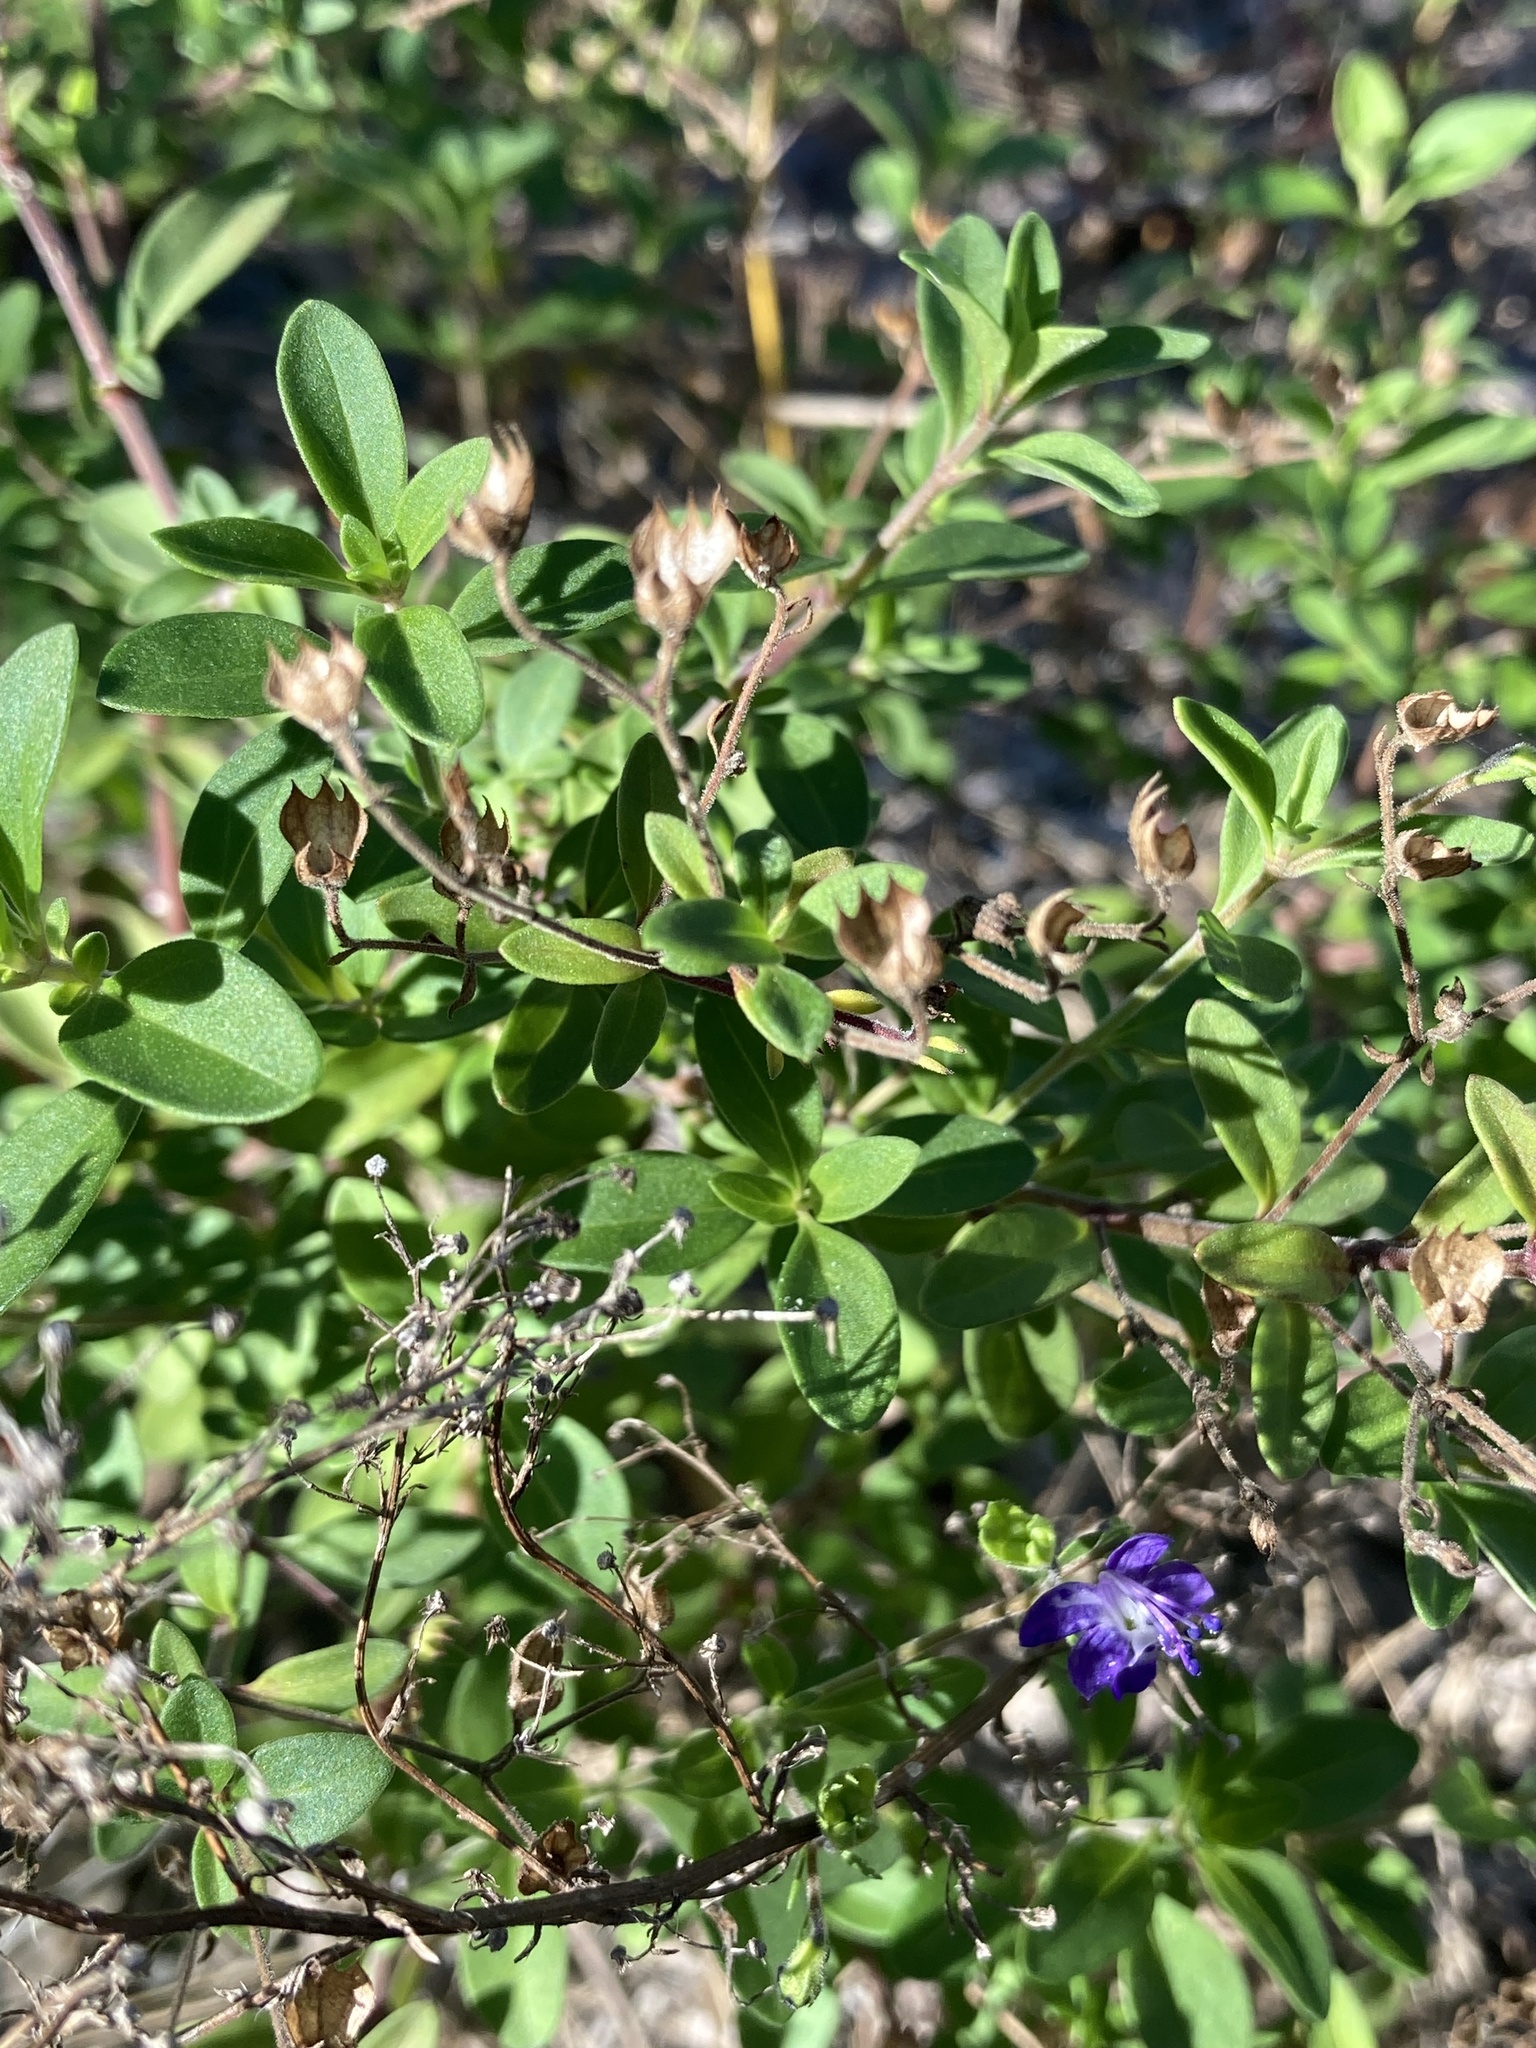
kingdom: Plantae
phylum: Tracheophyta
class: Magnoliopsida
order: Lamiales
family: Lamiaceae
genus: Trichostema
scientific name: Trichostema
